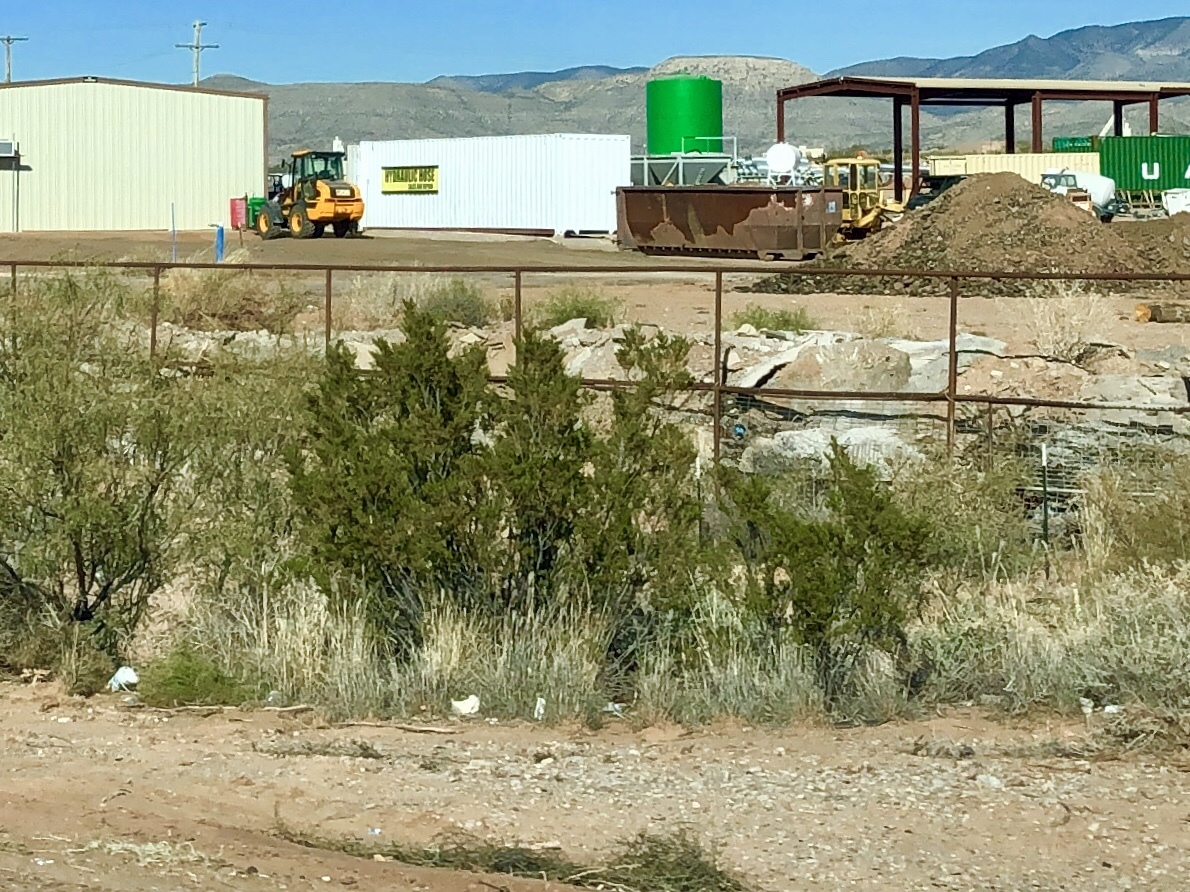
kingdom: Plantae
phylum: Tracheophyta
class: Magnoliopsida
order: Zygophyllales
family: Zygophyllaceae
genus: Larrea
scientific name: Larrea tridentata
